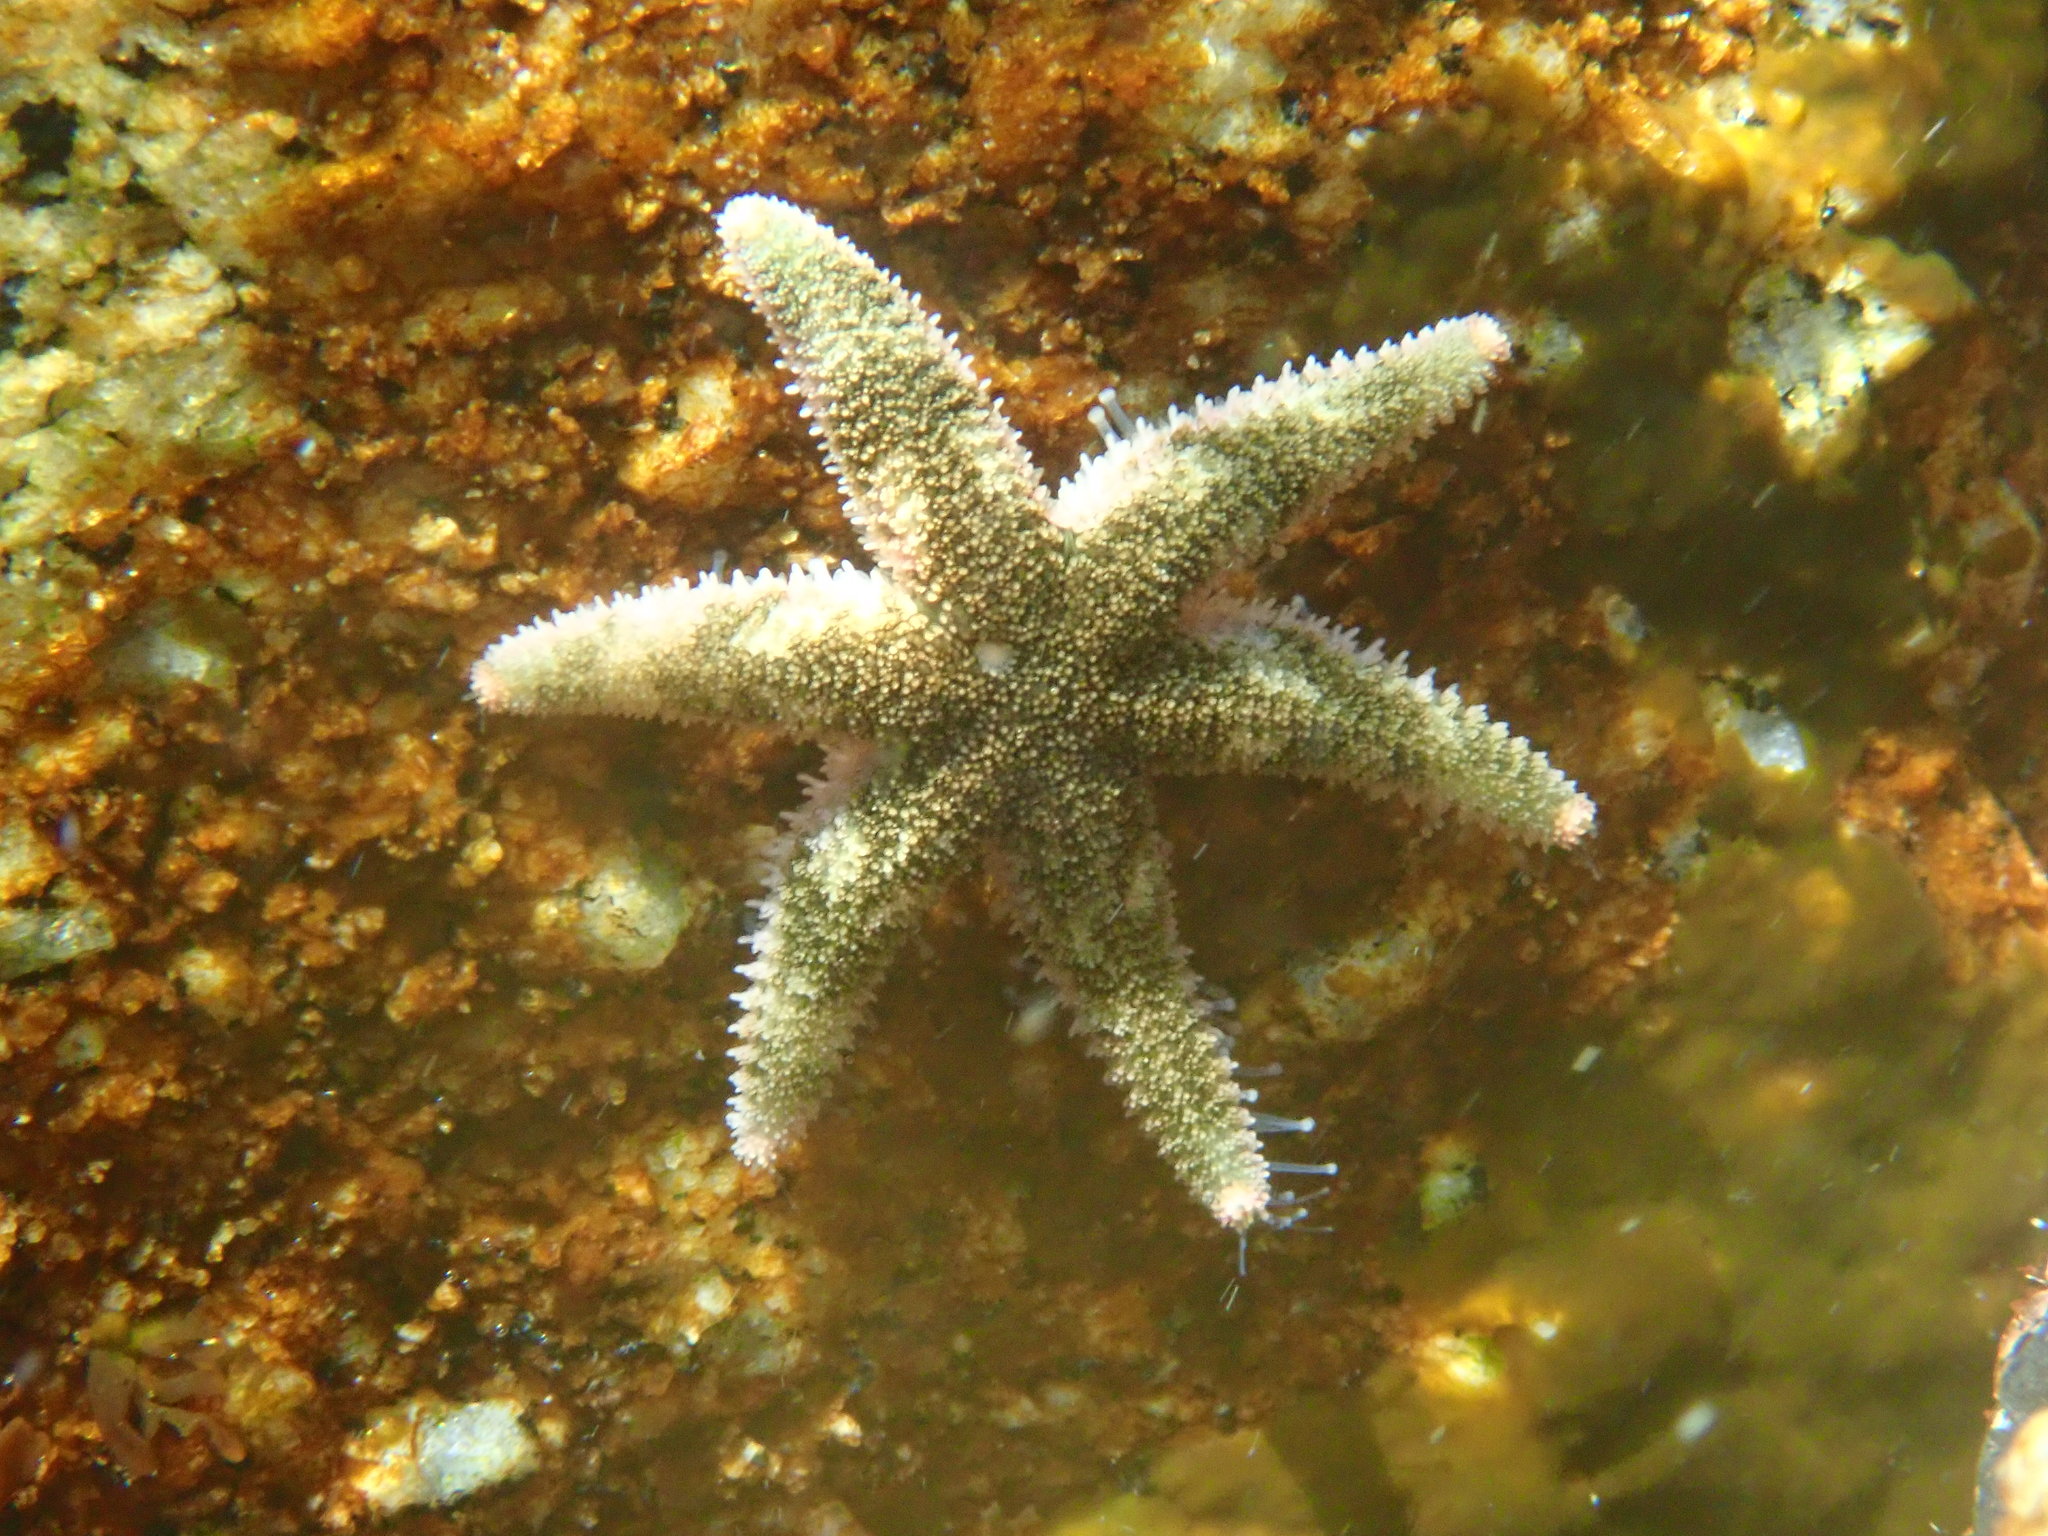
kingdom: Animalia
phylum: Echinodermata
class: Asteroidea
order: Forcipulatida
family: Asteriidae
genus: Leptasterias
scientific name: Leptasterias hexactis
